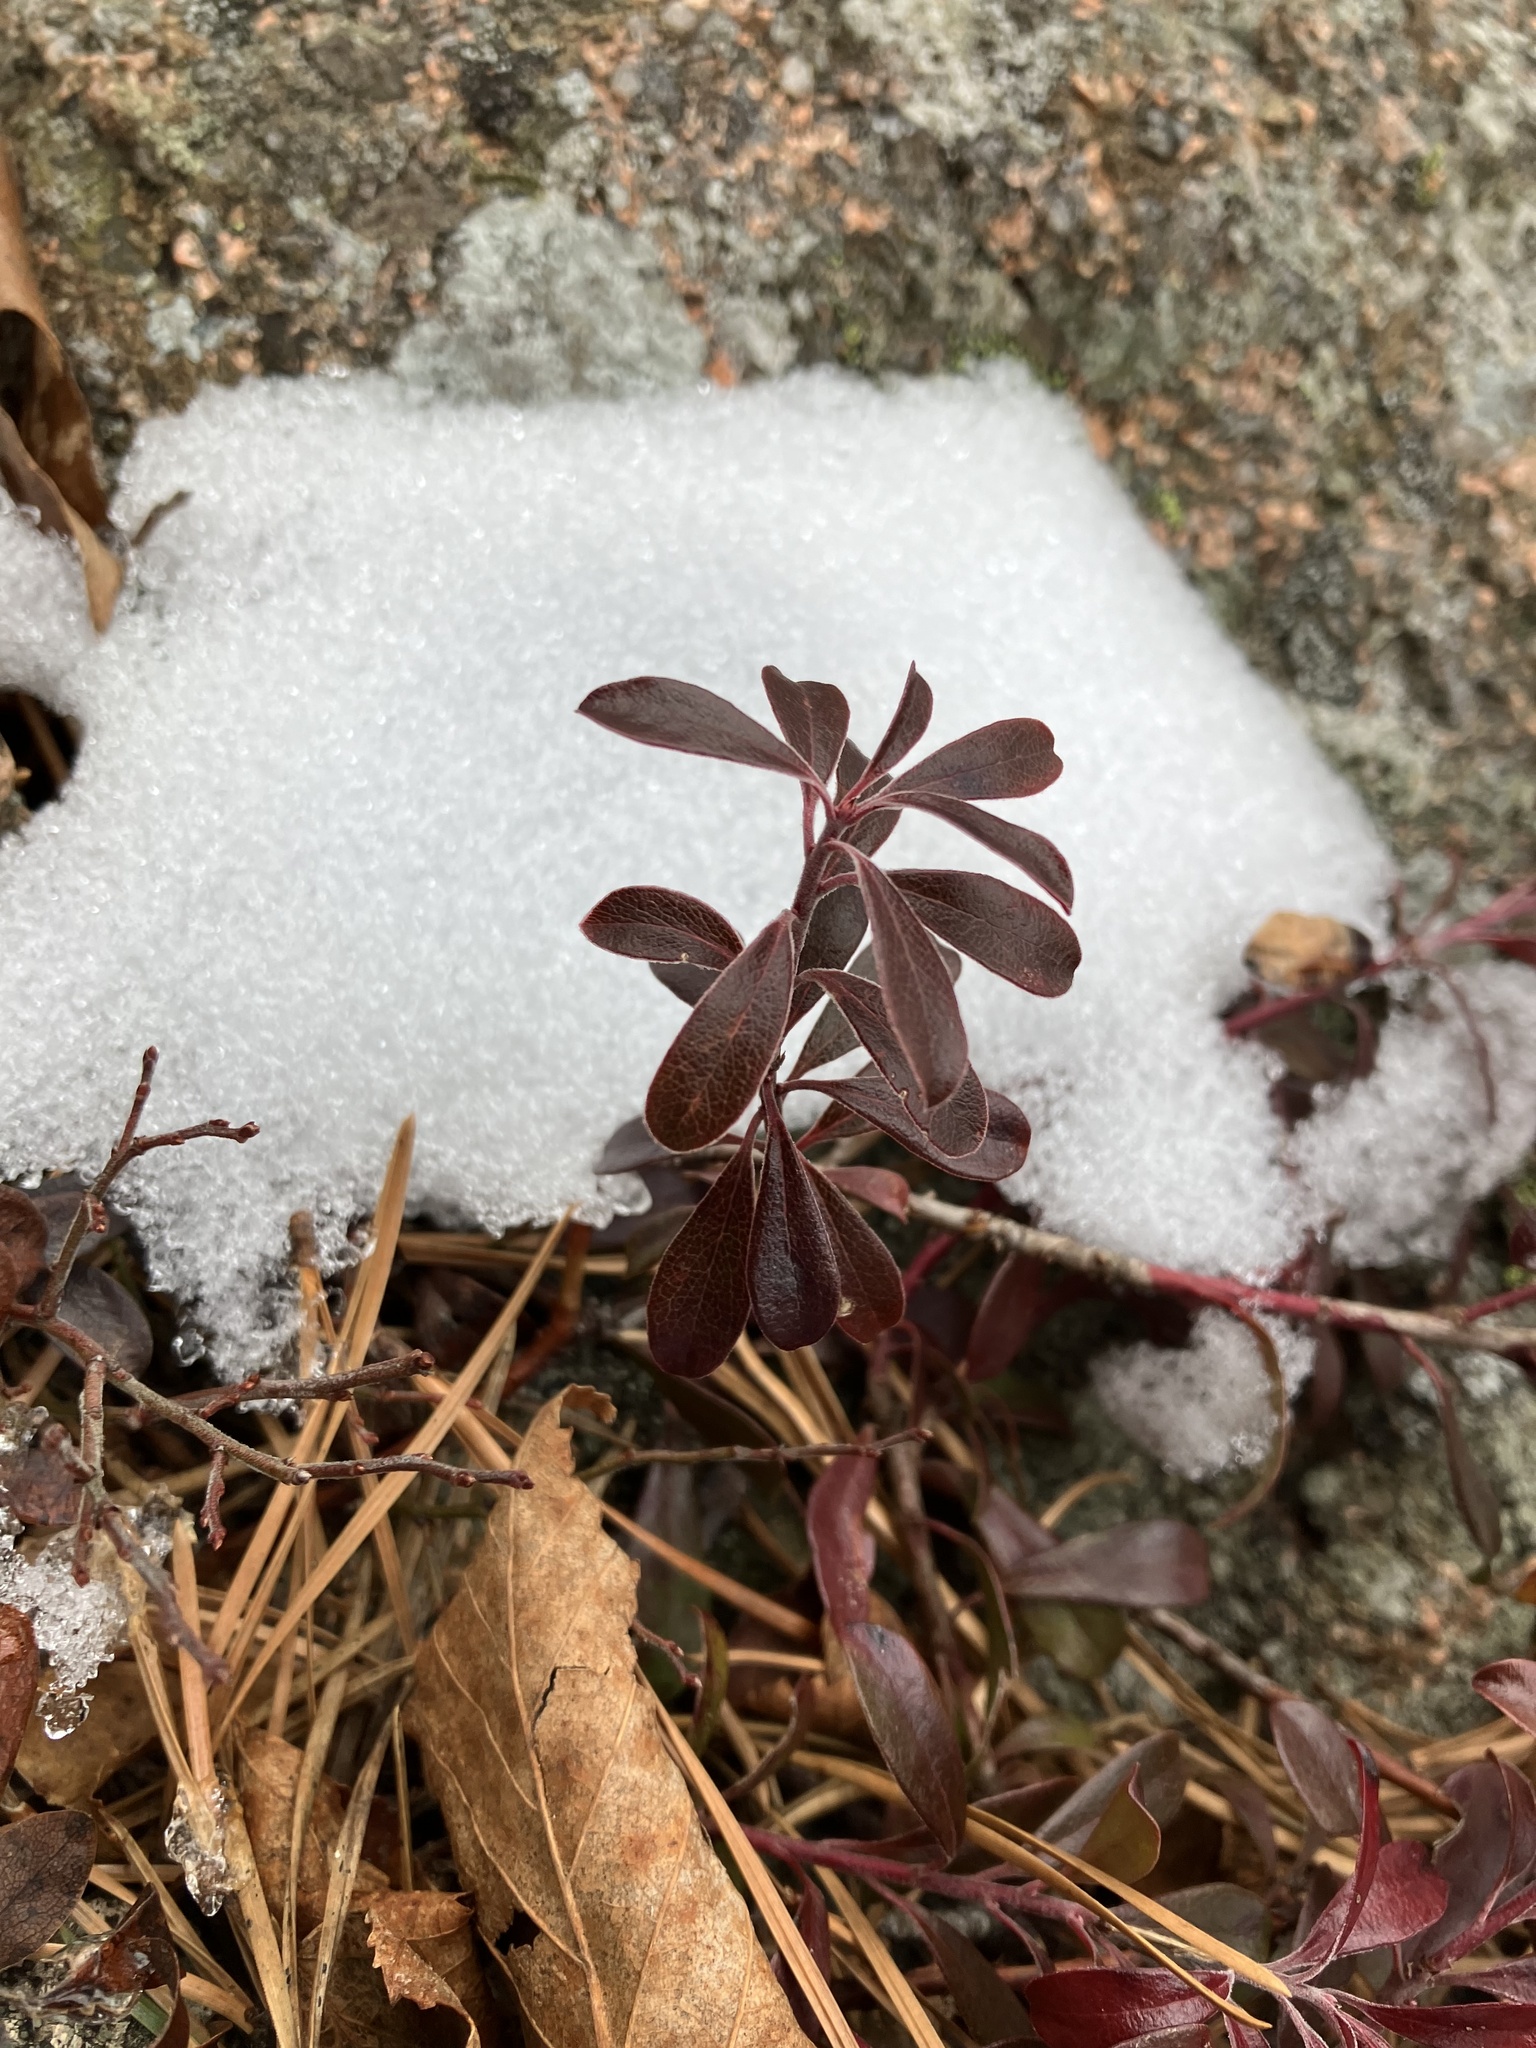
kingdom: Plantae
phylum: Tracheophyta
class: Magnoliopsida
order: Ericales
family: Ericaceae
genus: Arctostaphylos
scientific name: Arctostaphylos uva-ursi
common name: Bearberry
